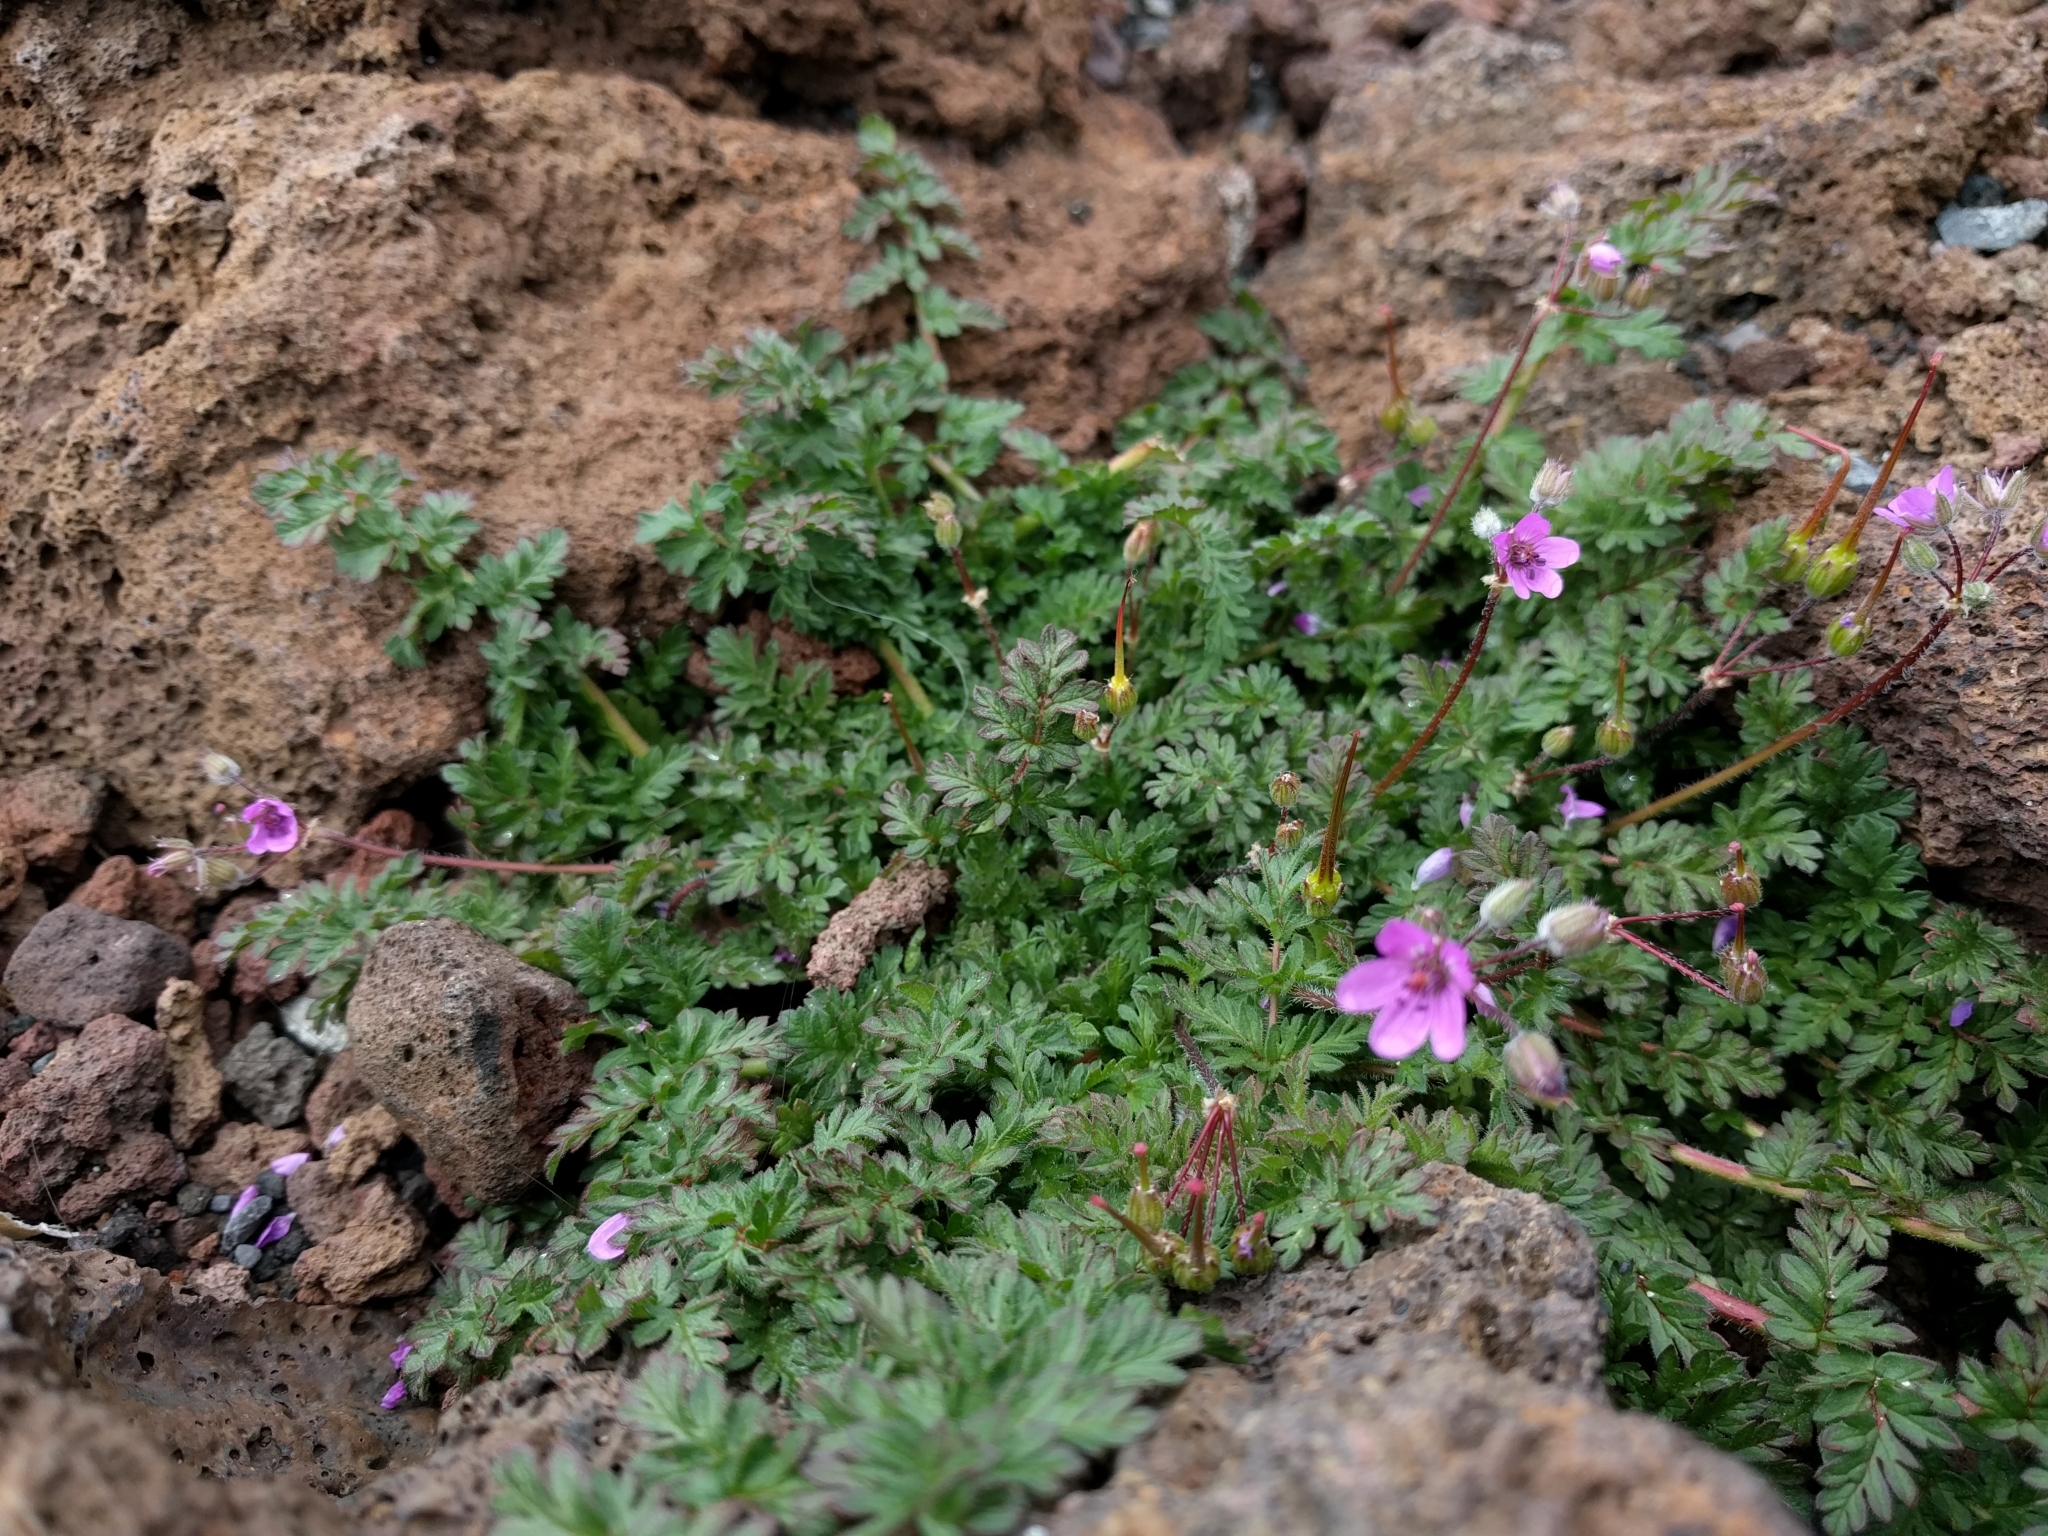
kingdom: Plantae
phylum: Tracheophyta
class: Magnoliopsida
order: Geraniales
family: Geraniaceae
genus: Erodium
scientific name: Erodium cicutarium
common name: Common stork's-bill
